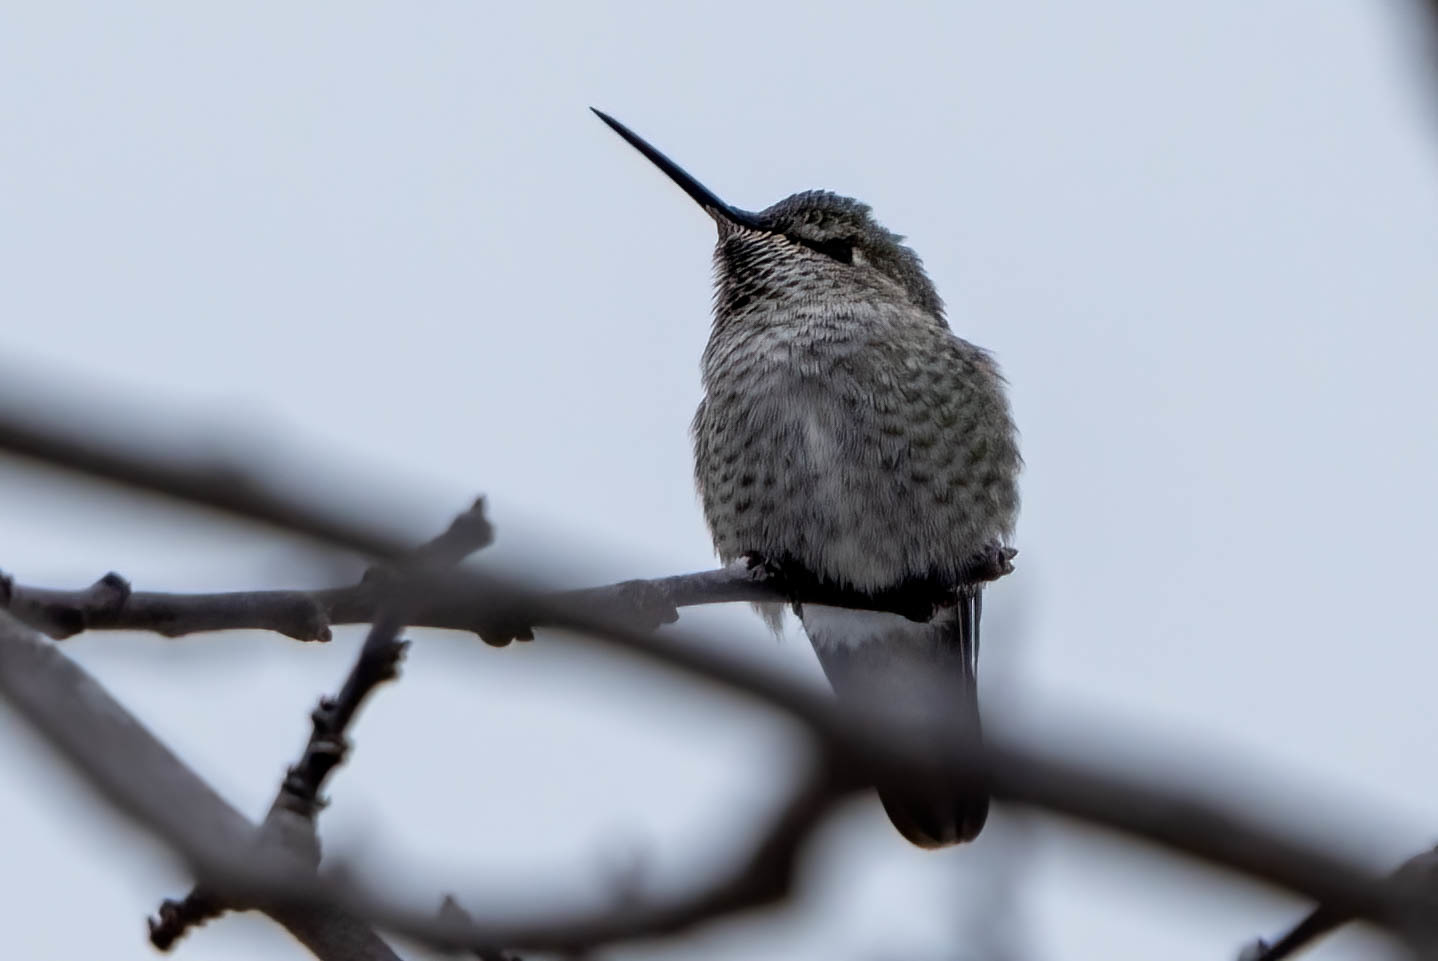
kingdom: Animalia
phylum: Chordata
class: Aves
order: Apodiformes
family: Trochilidae
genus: Calypte
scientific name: Calypte anna
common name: Anna's hummingbird
